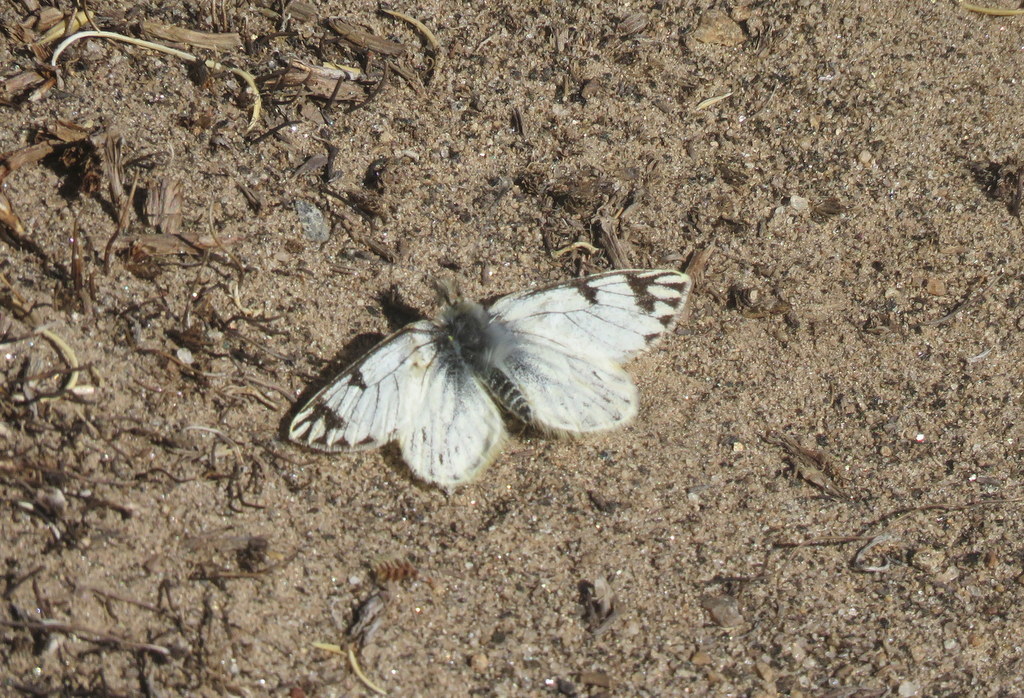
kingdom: Animalia
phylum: Arthropoda
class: Insecta
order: Lepidoptera
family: Pieridae
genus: Tatochila
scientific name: Tatochila distincta
